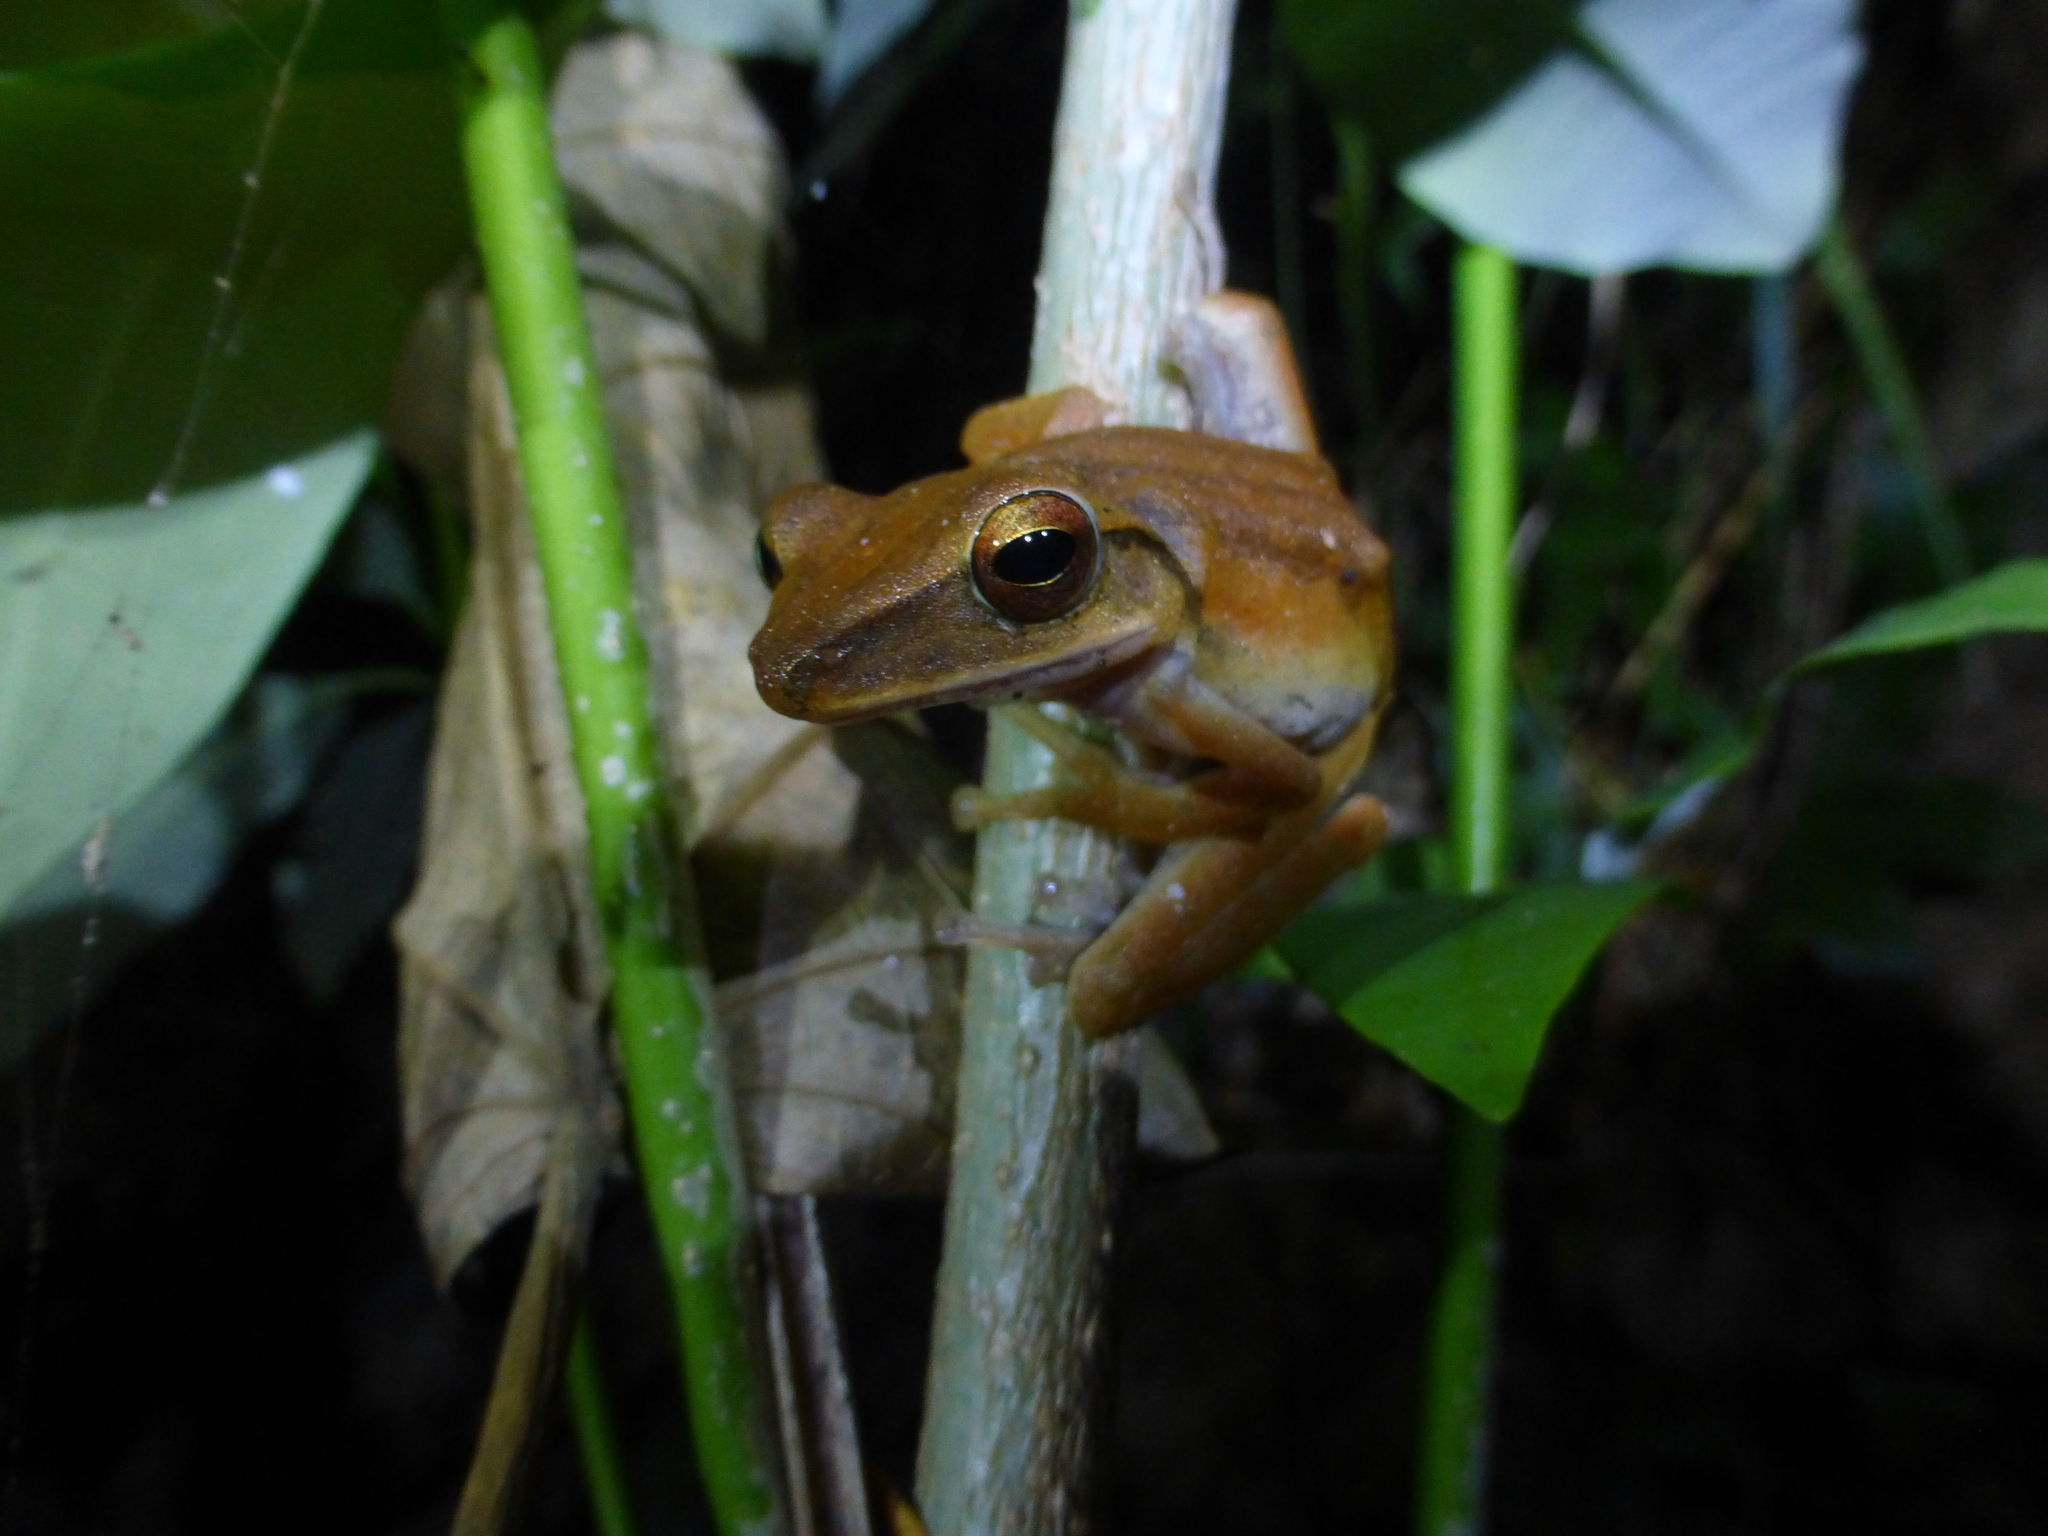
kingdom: Animalia
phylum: Chordata
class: Amphibia
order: Anura
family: Rhacophoridae
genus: Polypedates
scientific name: Polypedates leucomystax
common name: Common tree frog/four-lined tree frog
